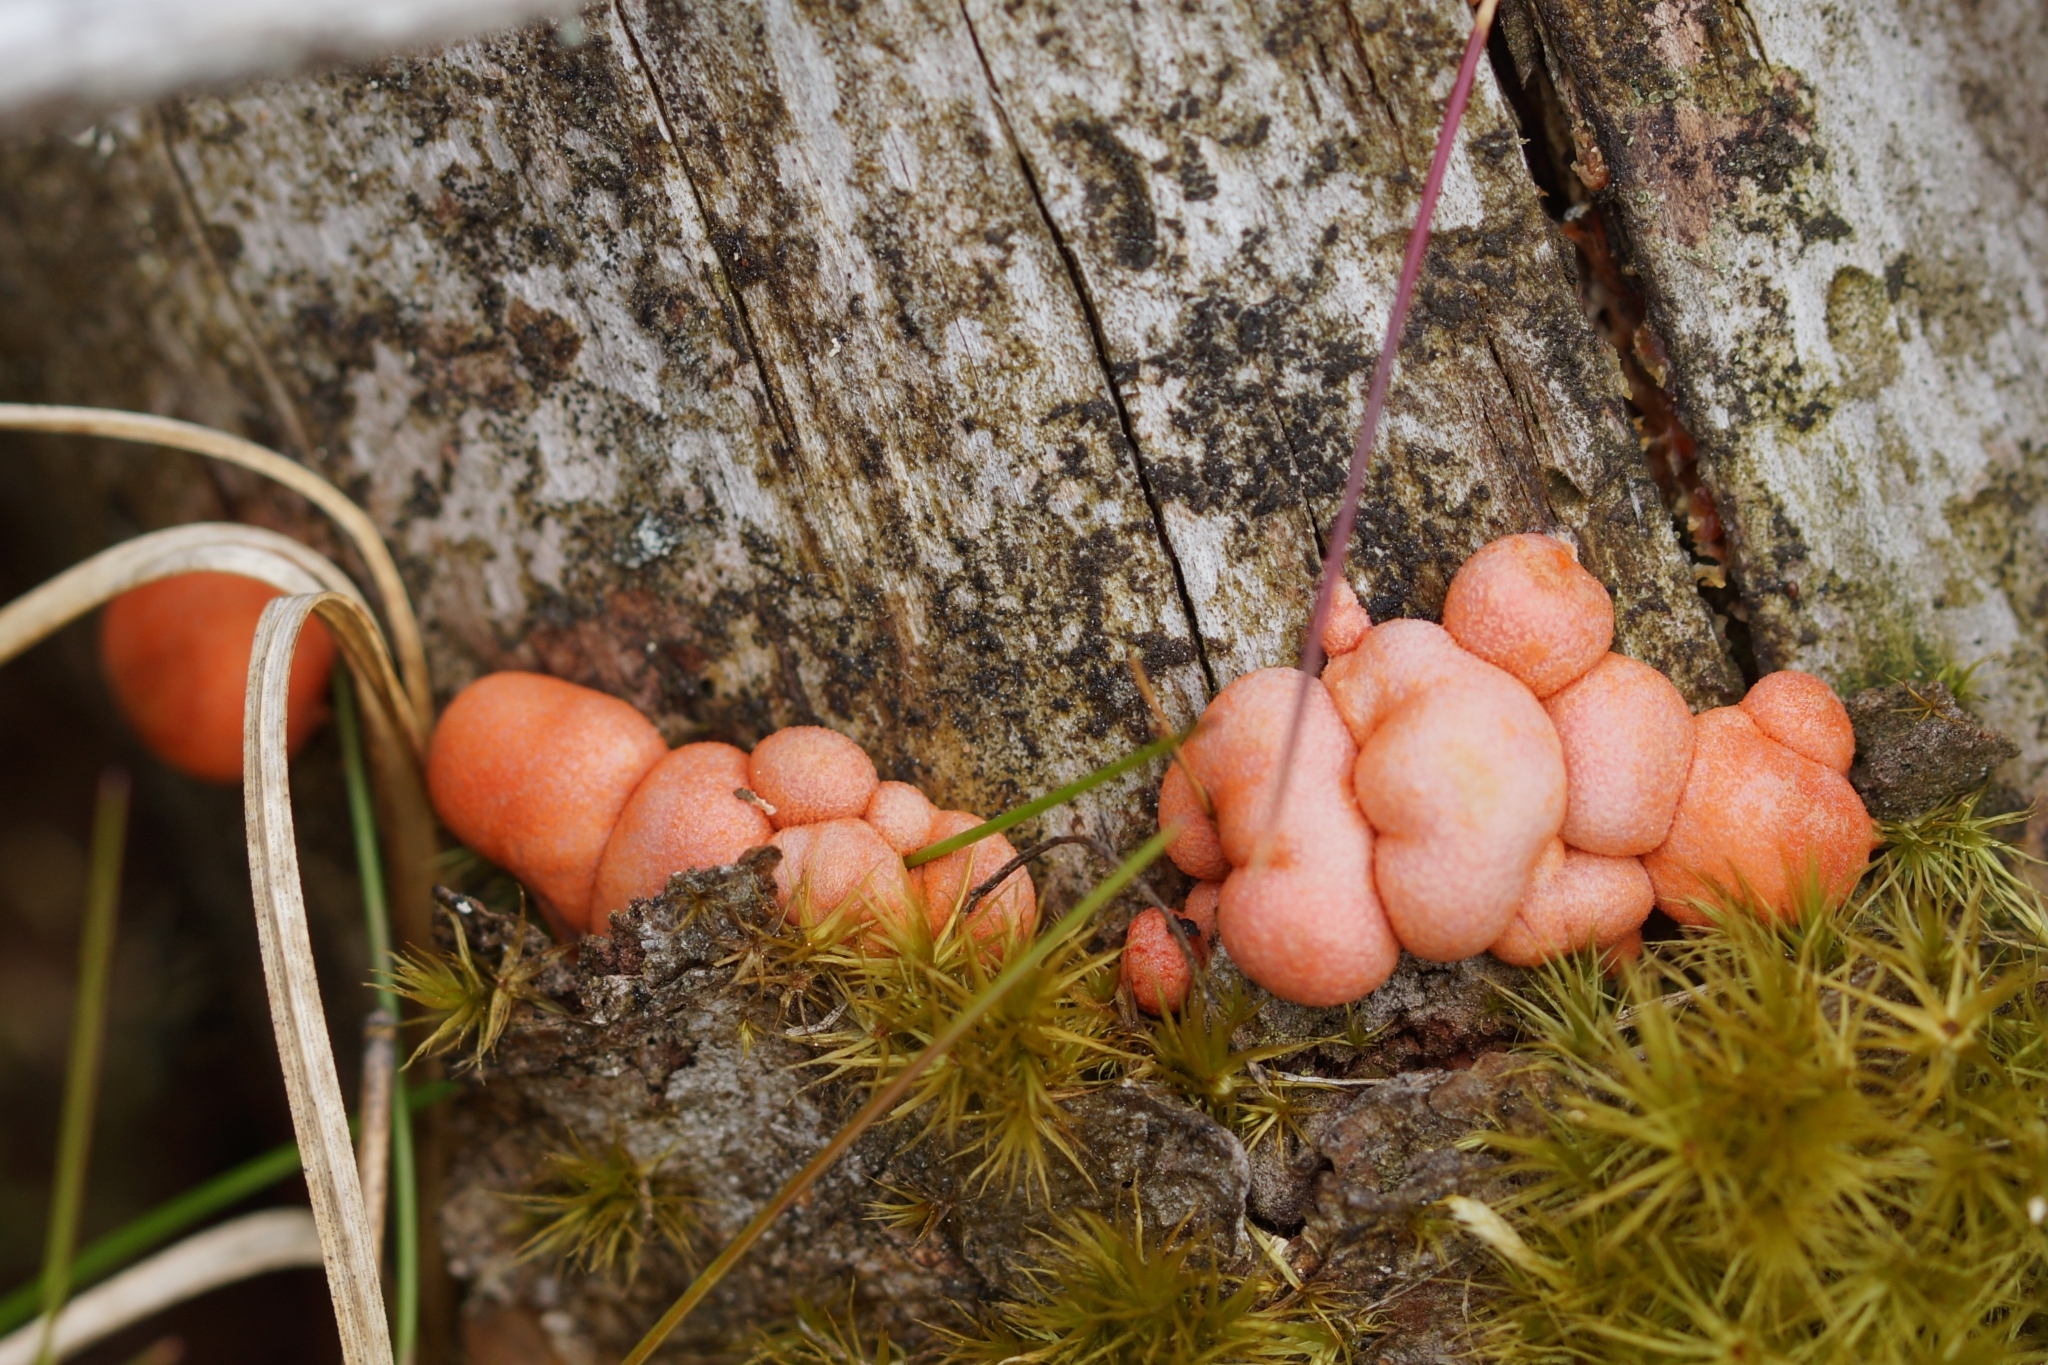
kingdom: Protozoa
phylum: Mycetozoa
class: Myxomycetes
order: Cribrariales
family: Tubiferaceae
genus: Lycogala
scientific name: Lycogala epidendrum
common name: Wolf's milk
